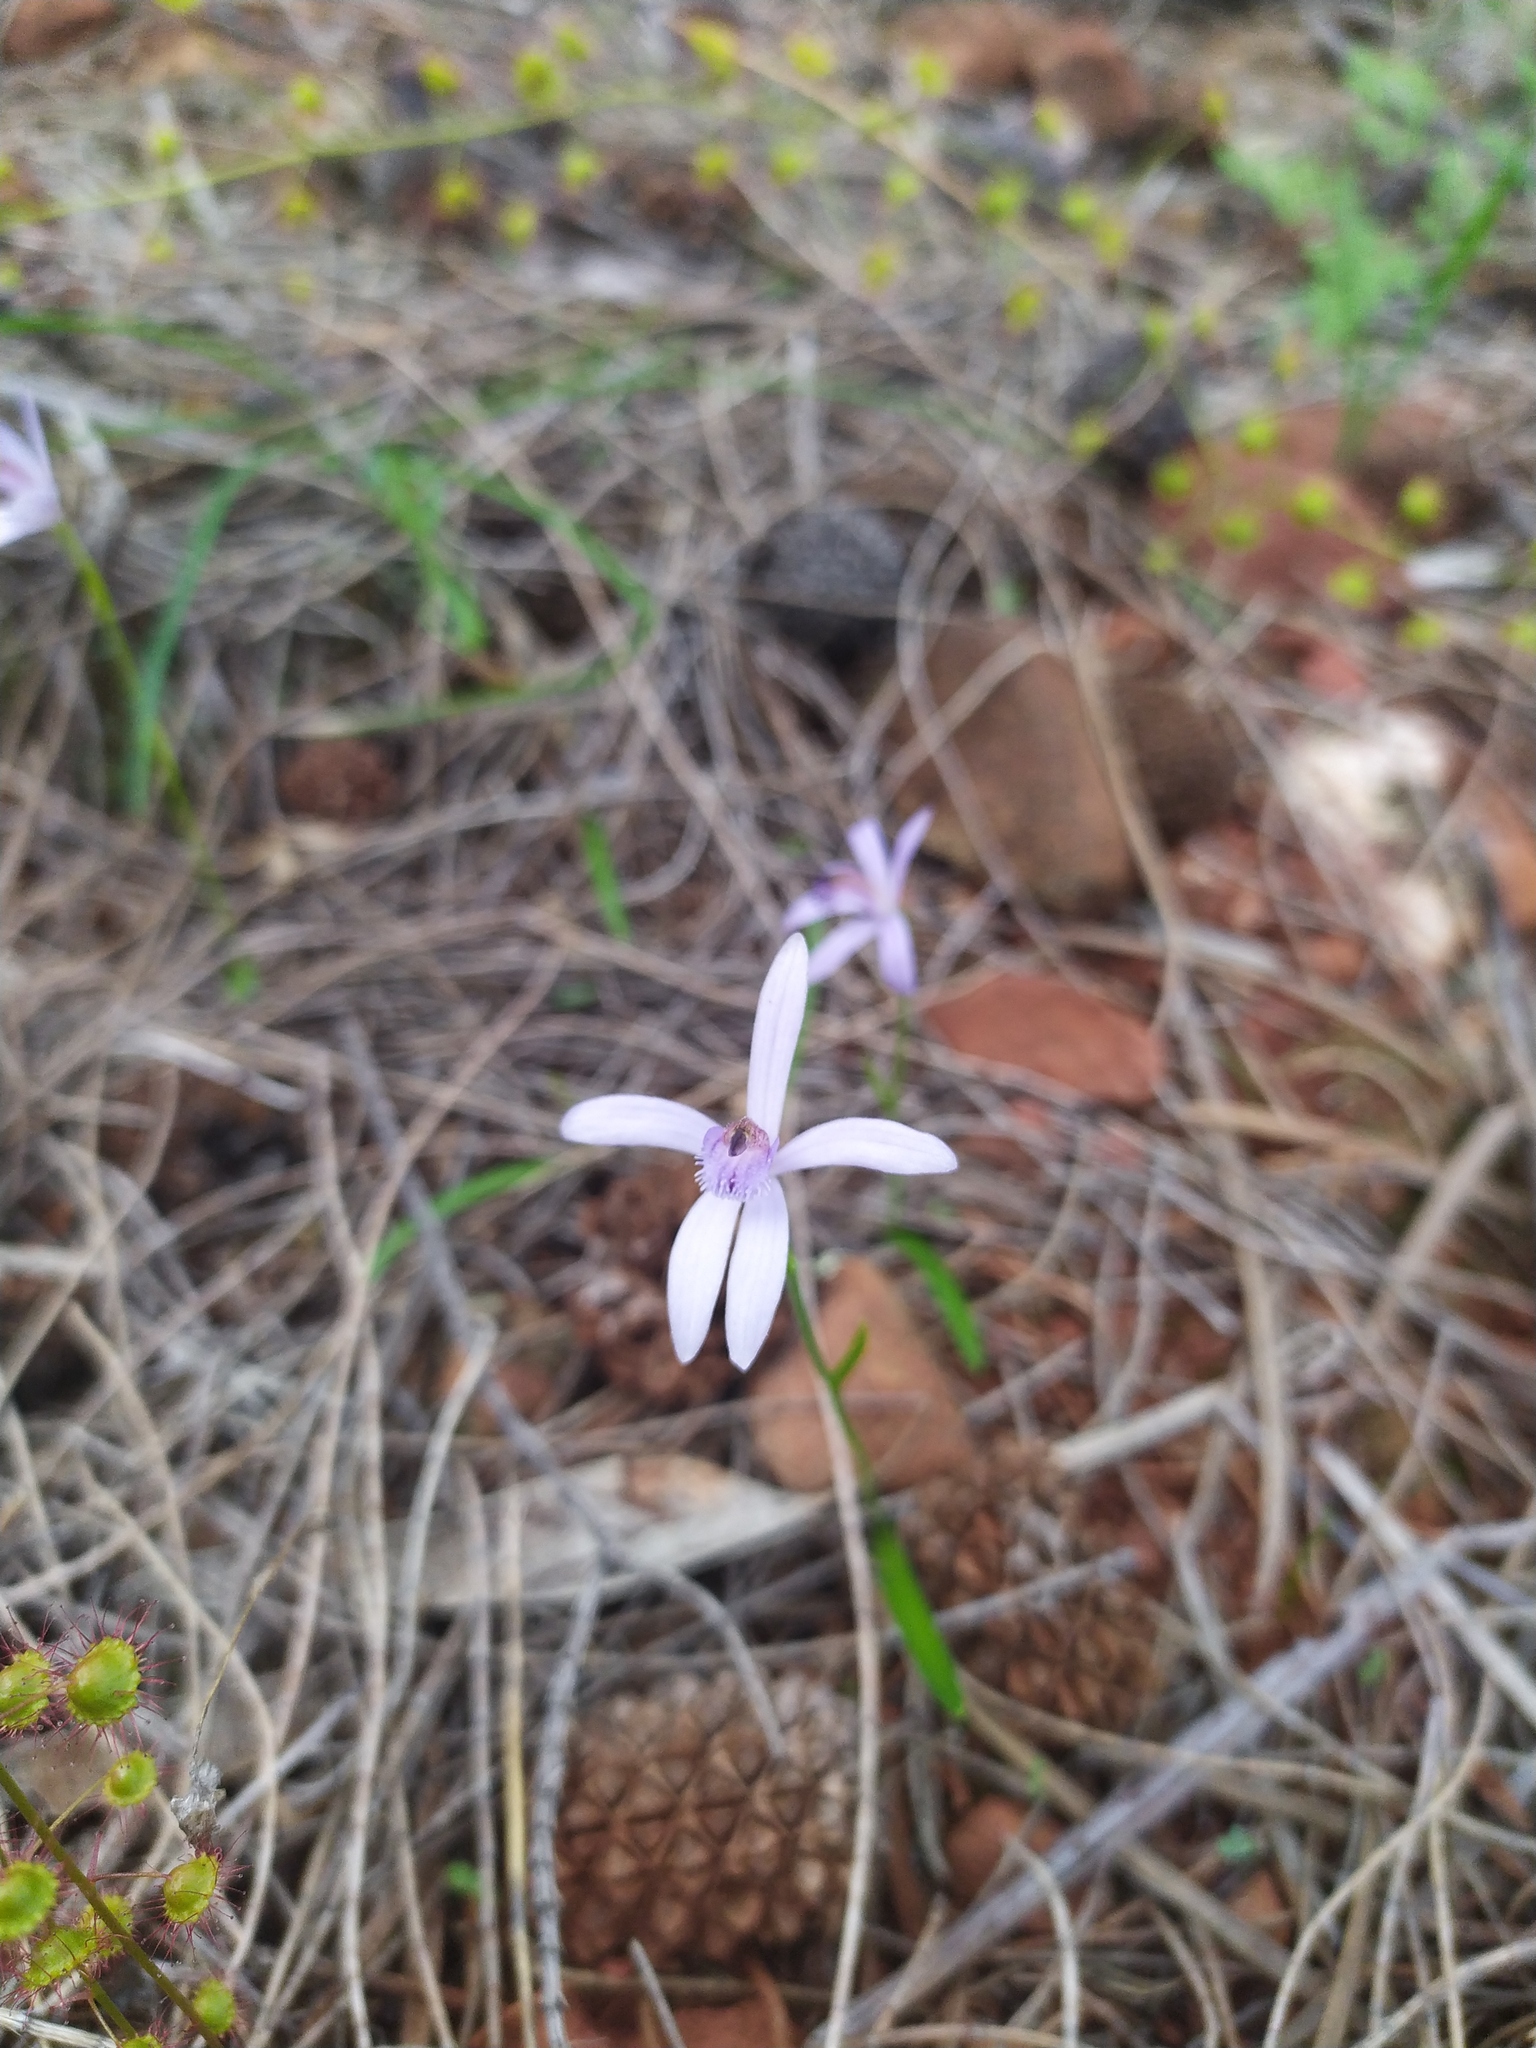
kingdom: Plantae
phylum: Tracheophyta
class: Liliopsida
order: Asparagales
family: Orchidaceae
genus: Pheladenia
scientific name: Pheladenia deformis
